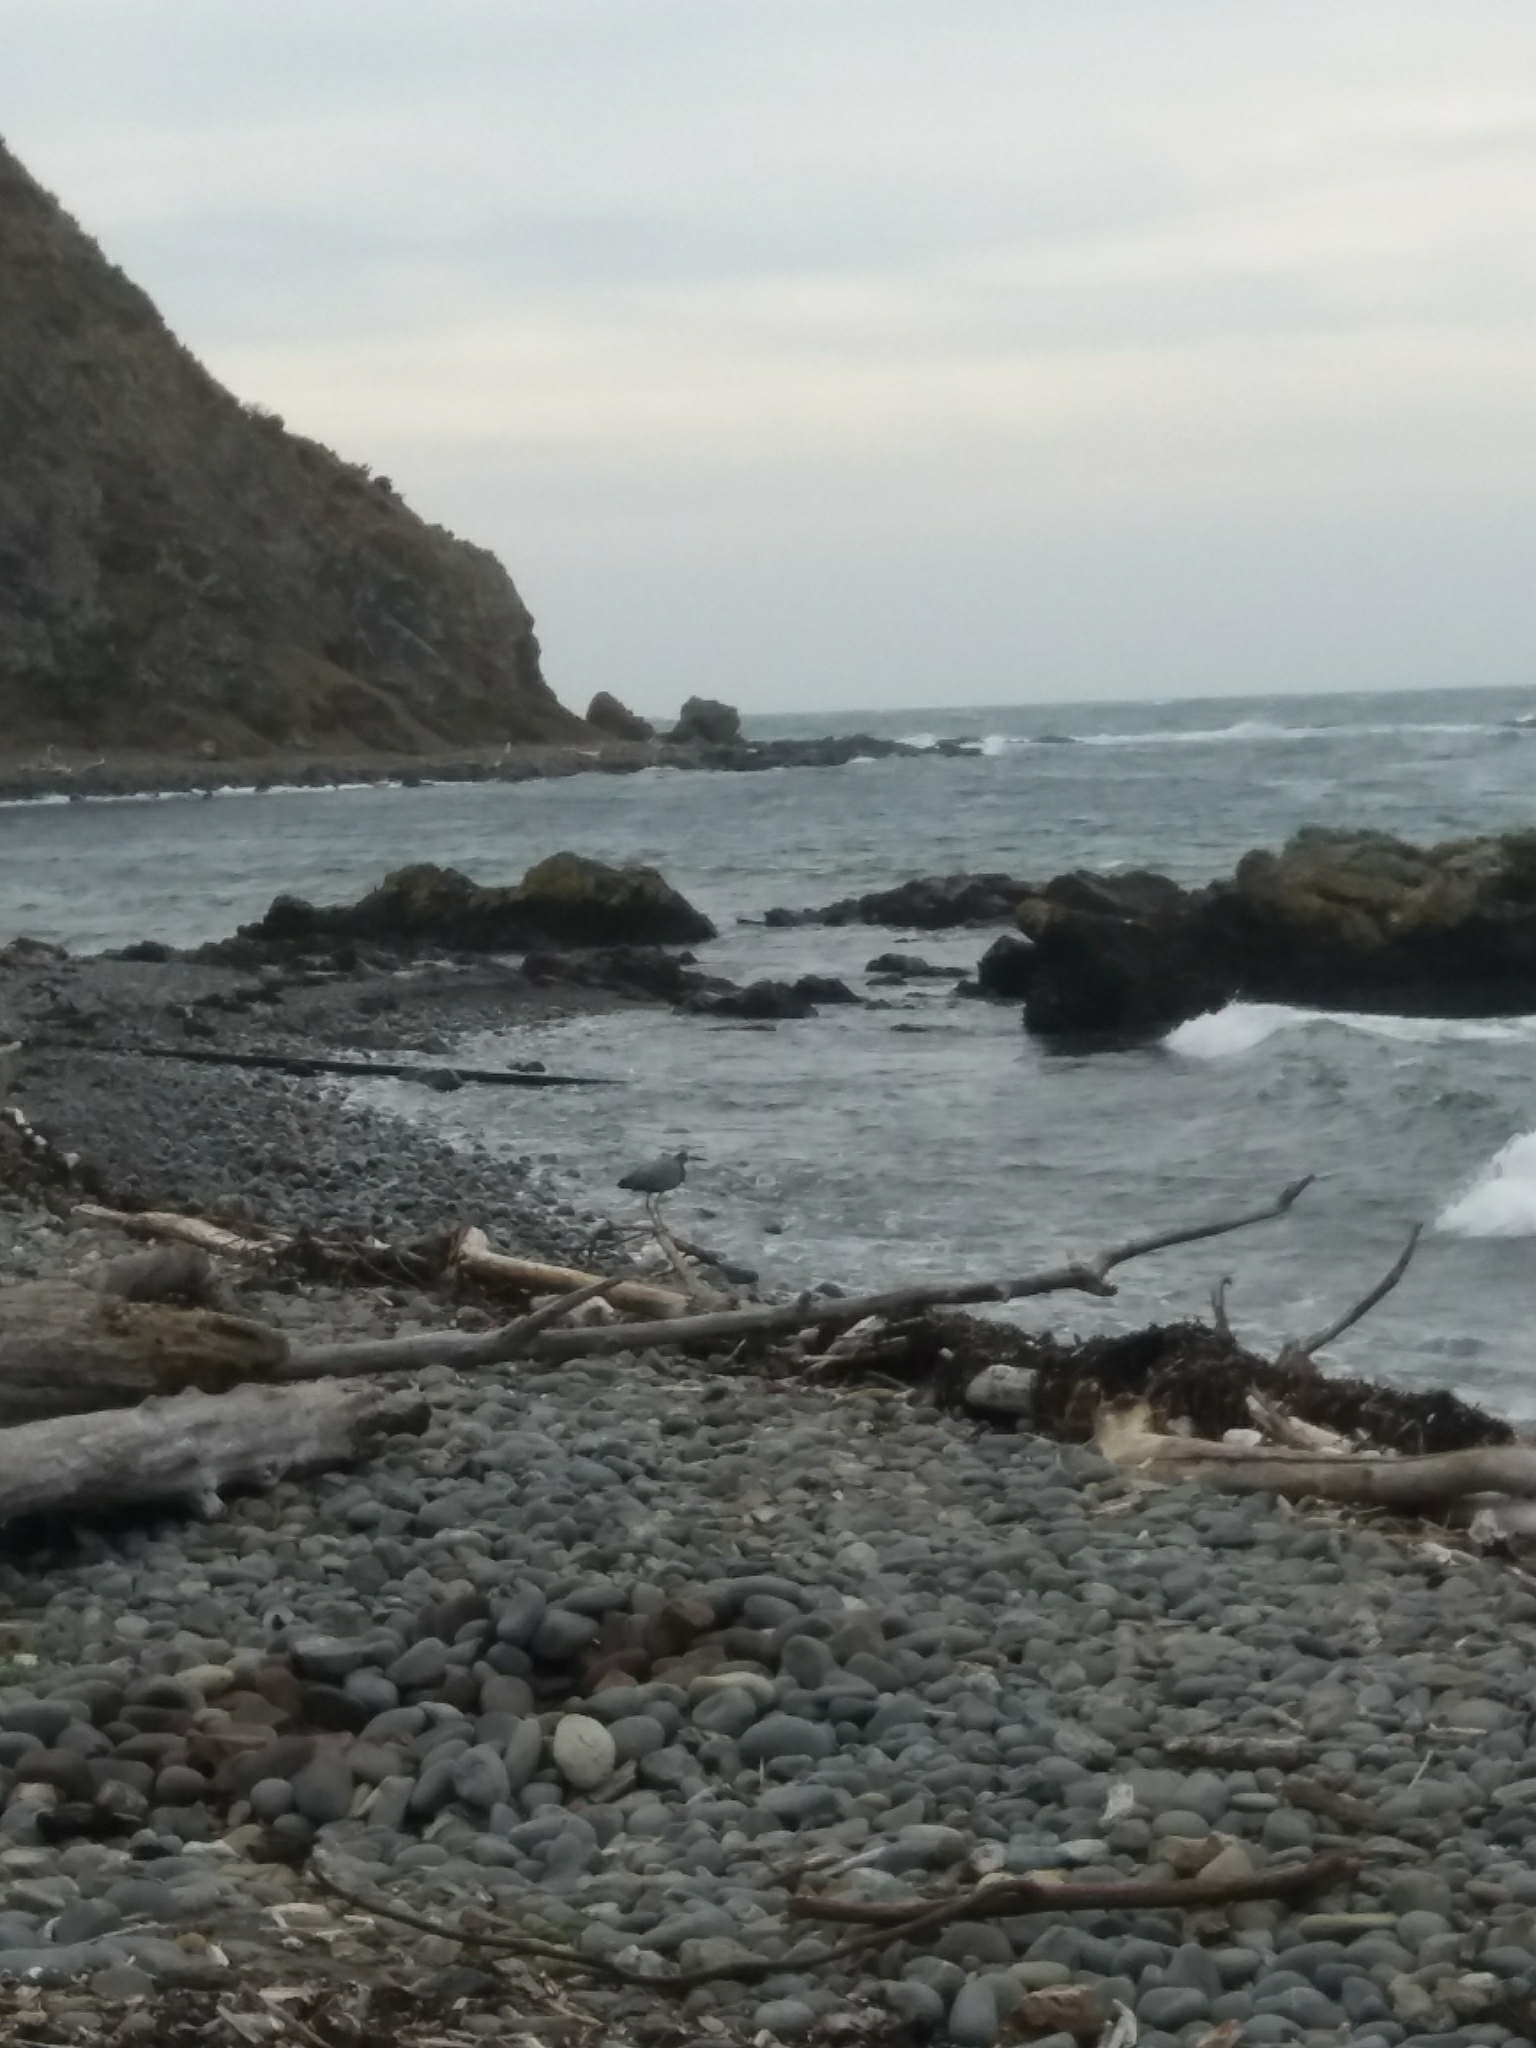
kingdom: Animalia
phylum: Chordata
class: Aves
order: Pelecaniformes
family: Ardeidae
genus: Egretta
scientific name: Egretta novaehollandiae
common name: White-faced heron
